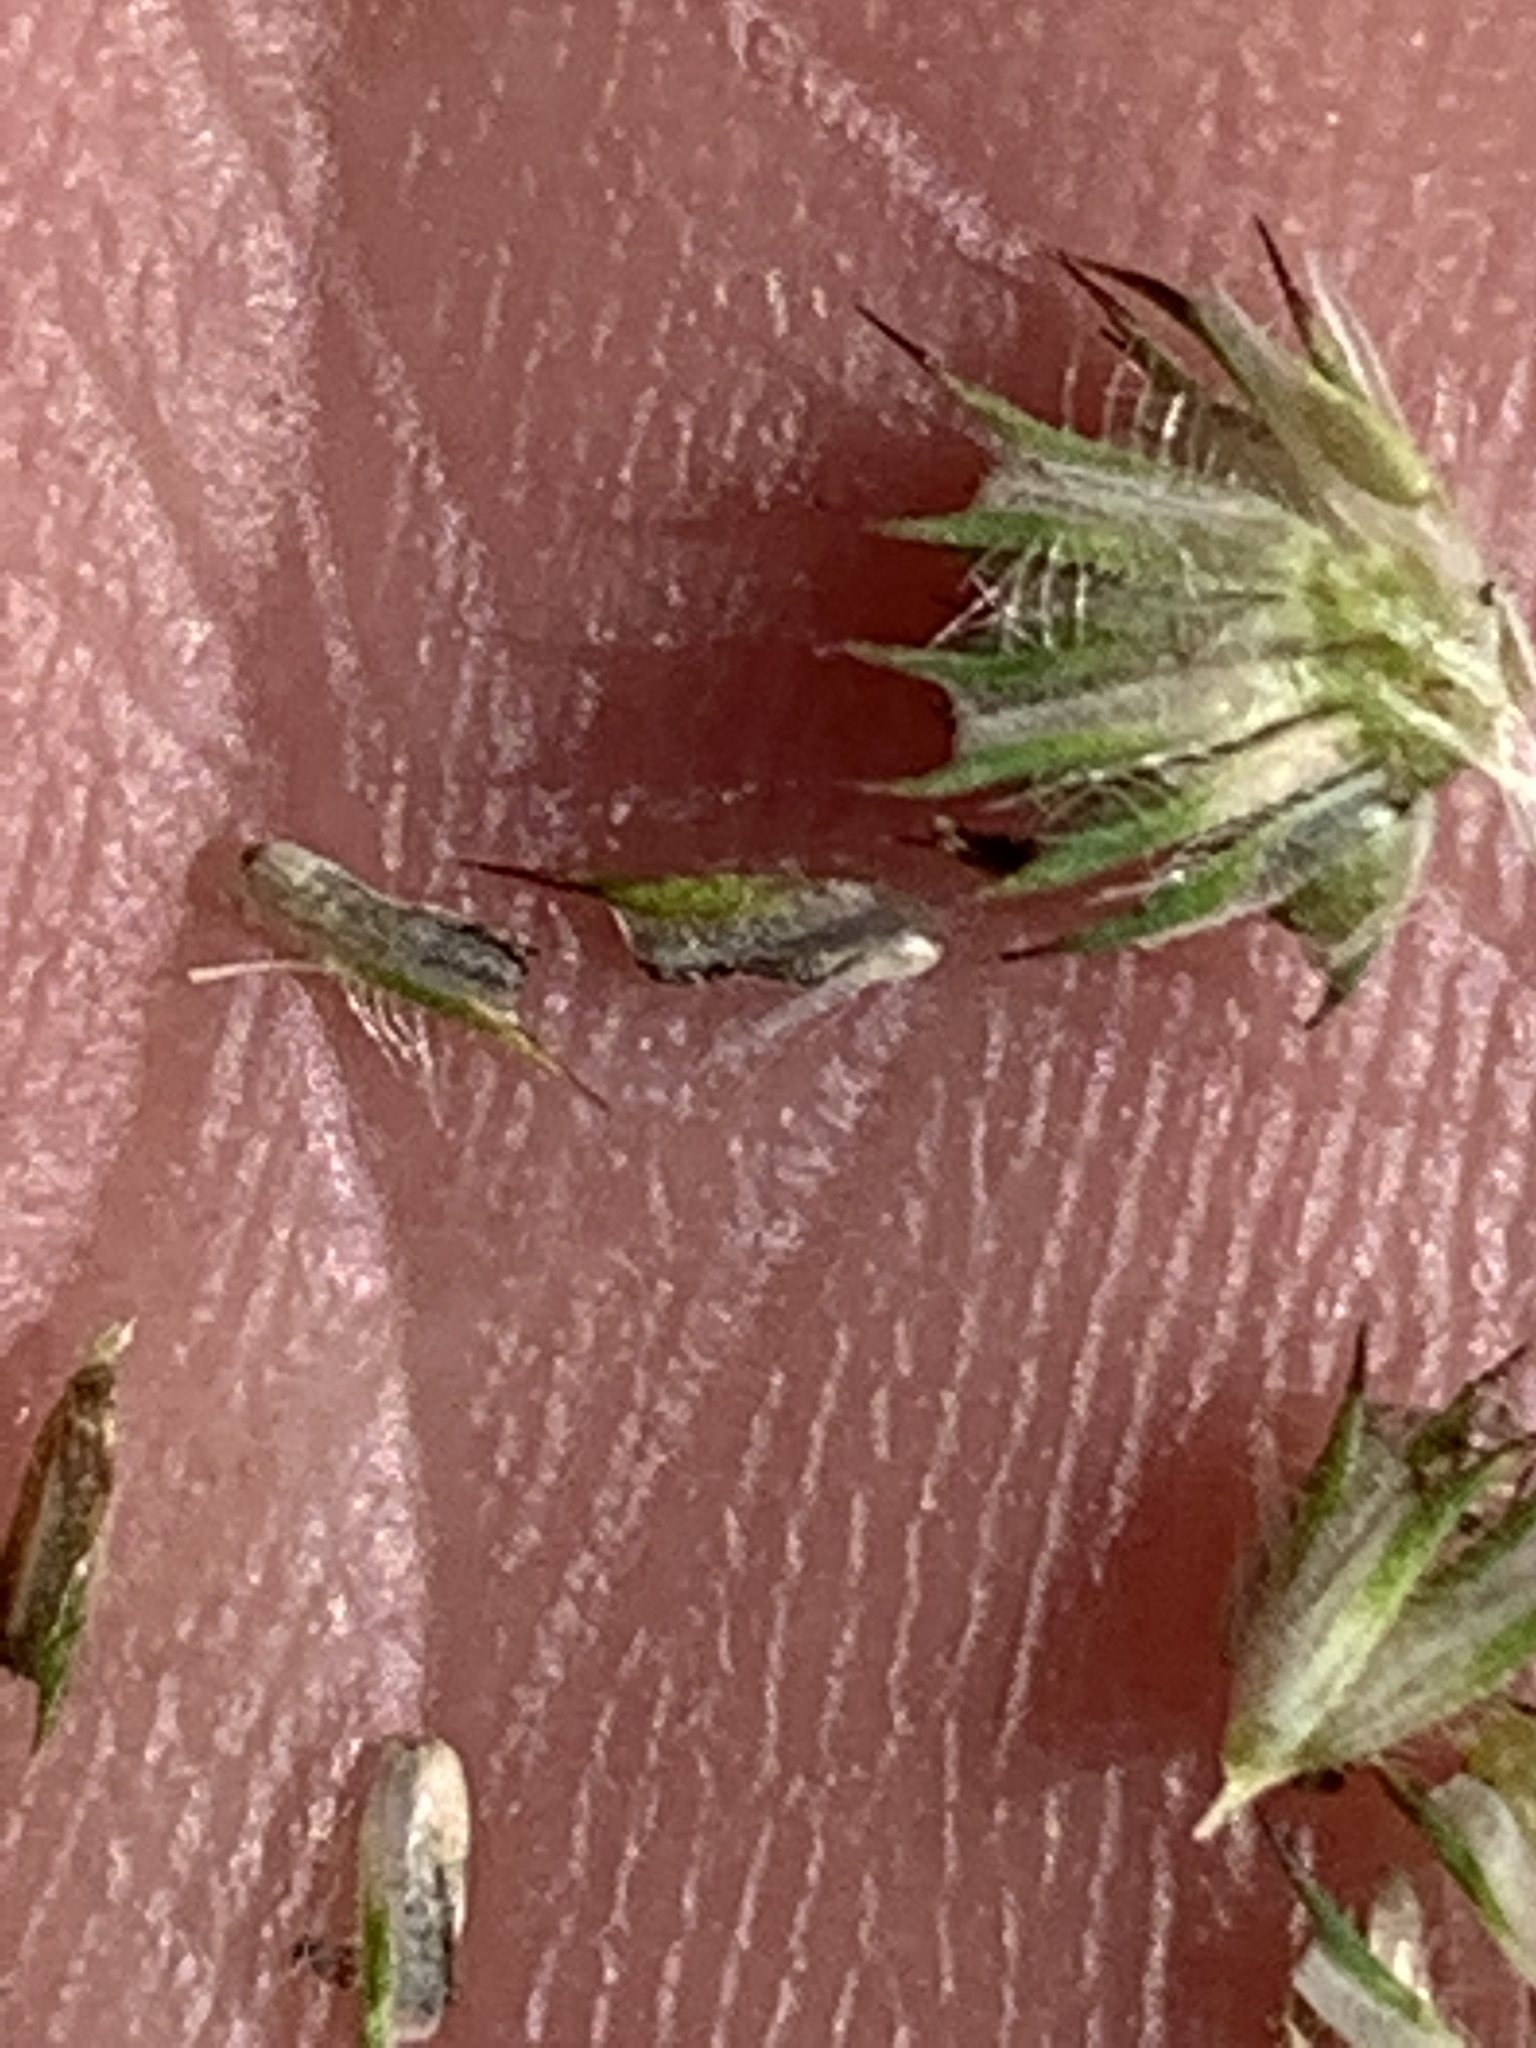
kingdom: Plantae
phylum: Tracheophyta
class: Liliopsida
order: Poales
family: Poaceae
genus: Phleum
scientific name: Phleum pratense
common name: Timothy grass
